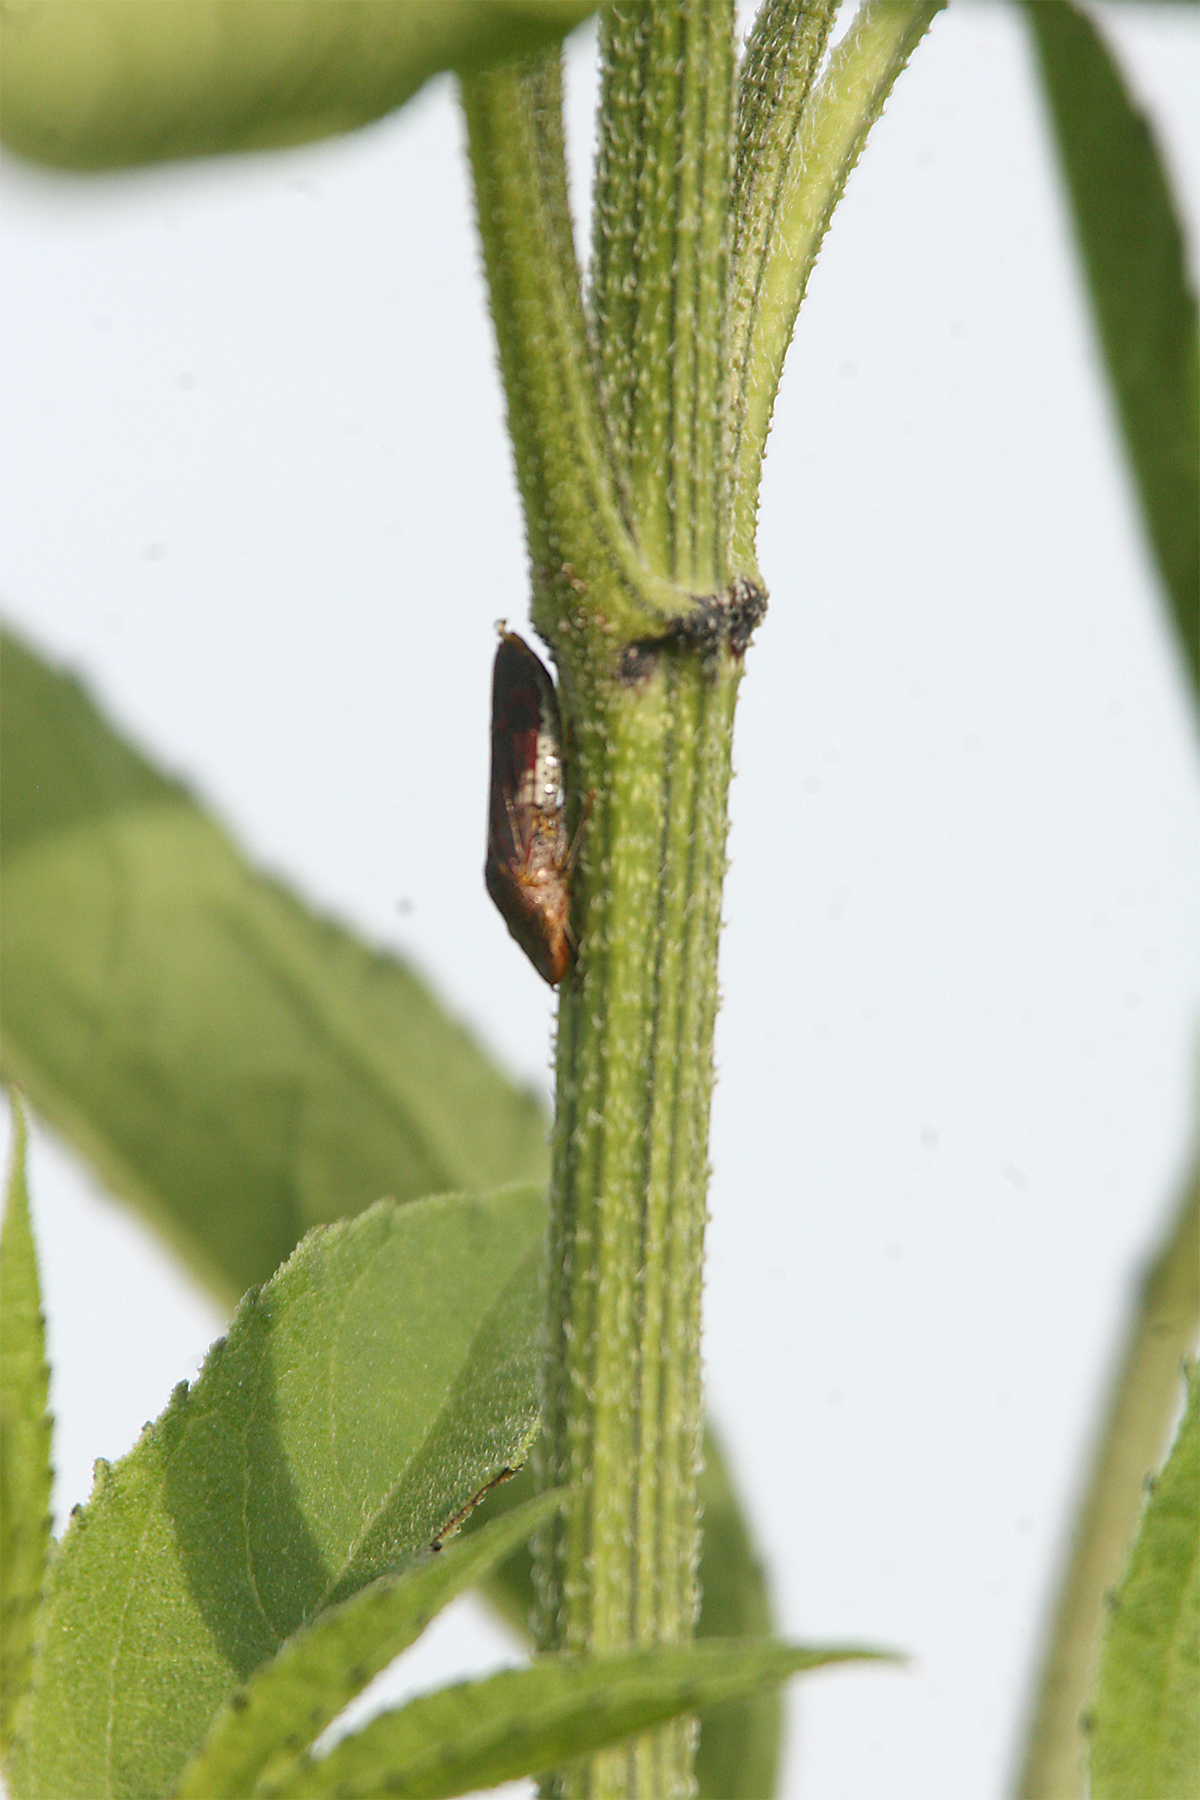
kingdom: Animalia
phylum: Arthropoda
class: Insecta
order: Hemiptera
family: Cicadellidae
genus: Homalodisca
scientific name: Homalodisca vitripennis
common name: Glassy-winged sharpshooter
